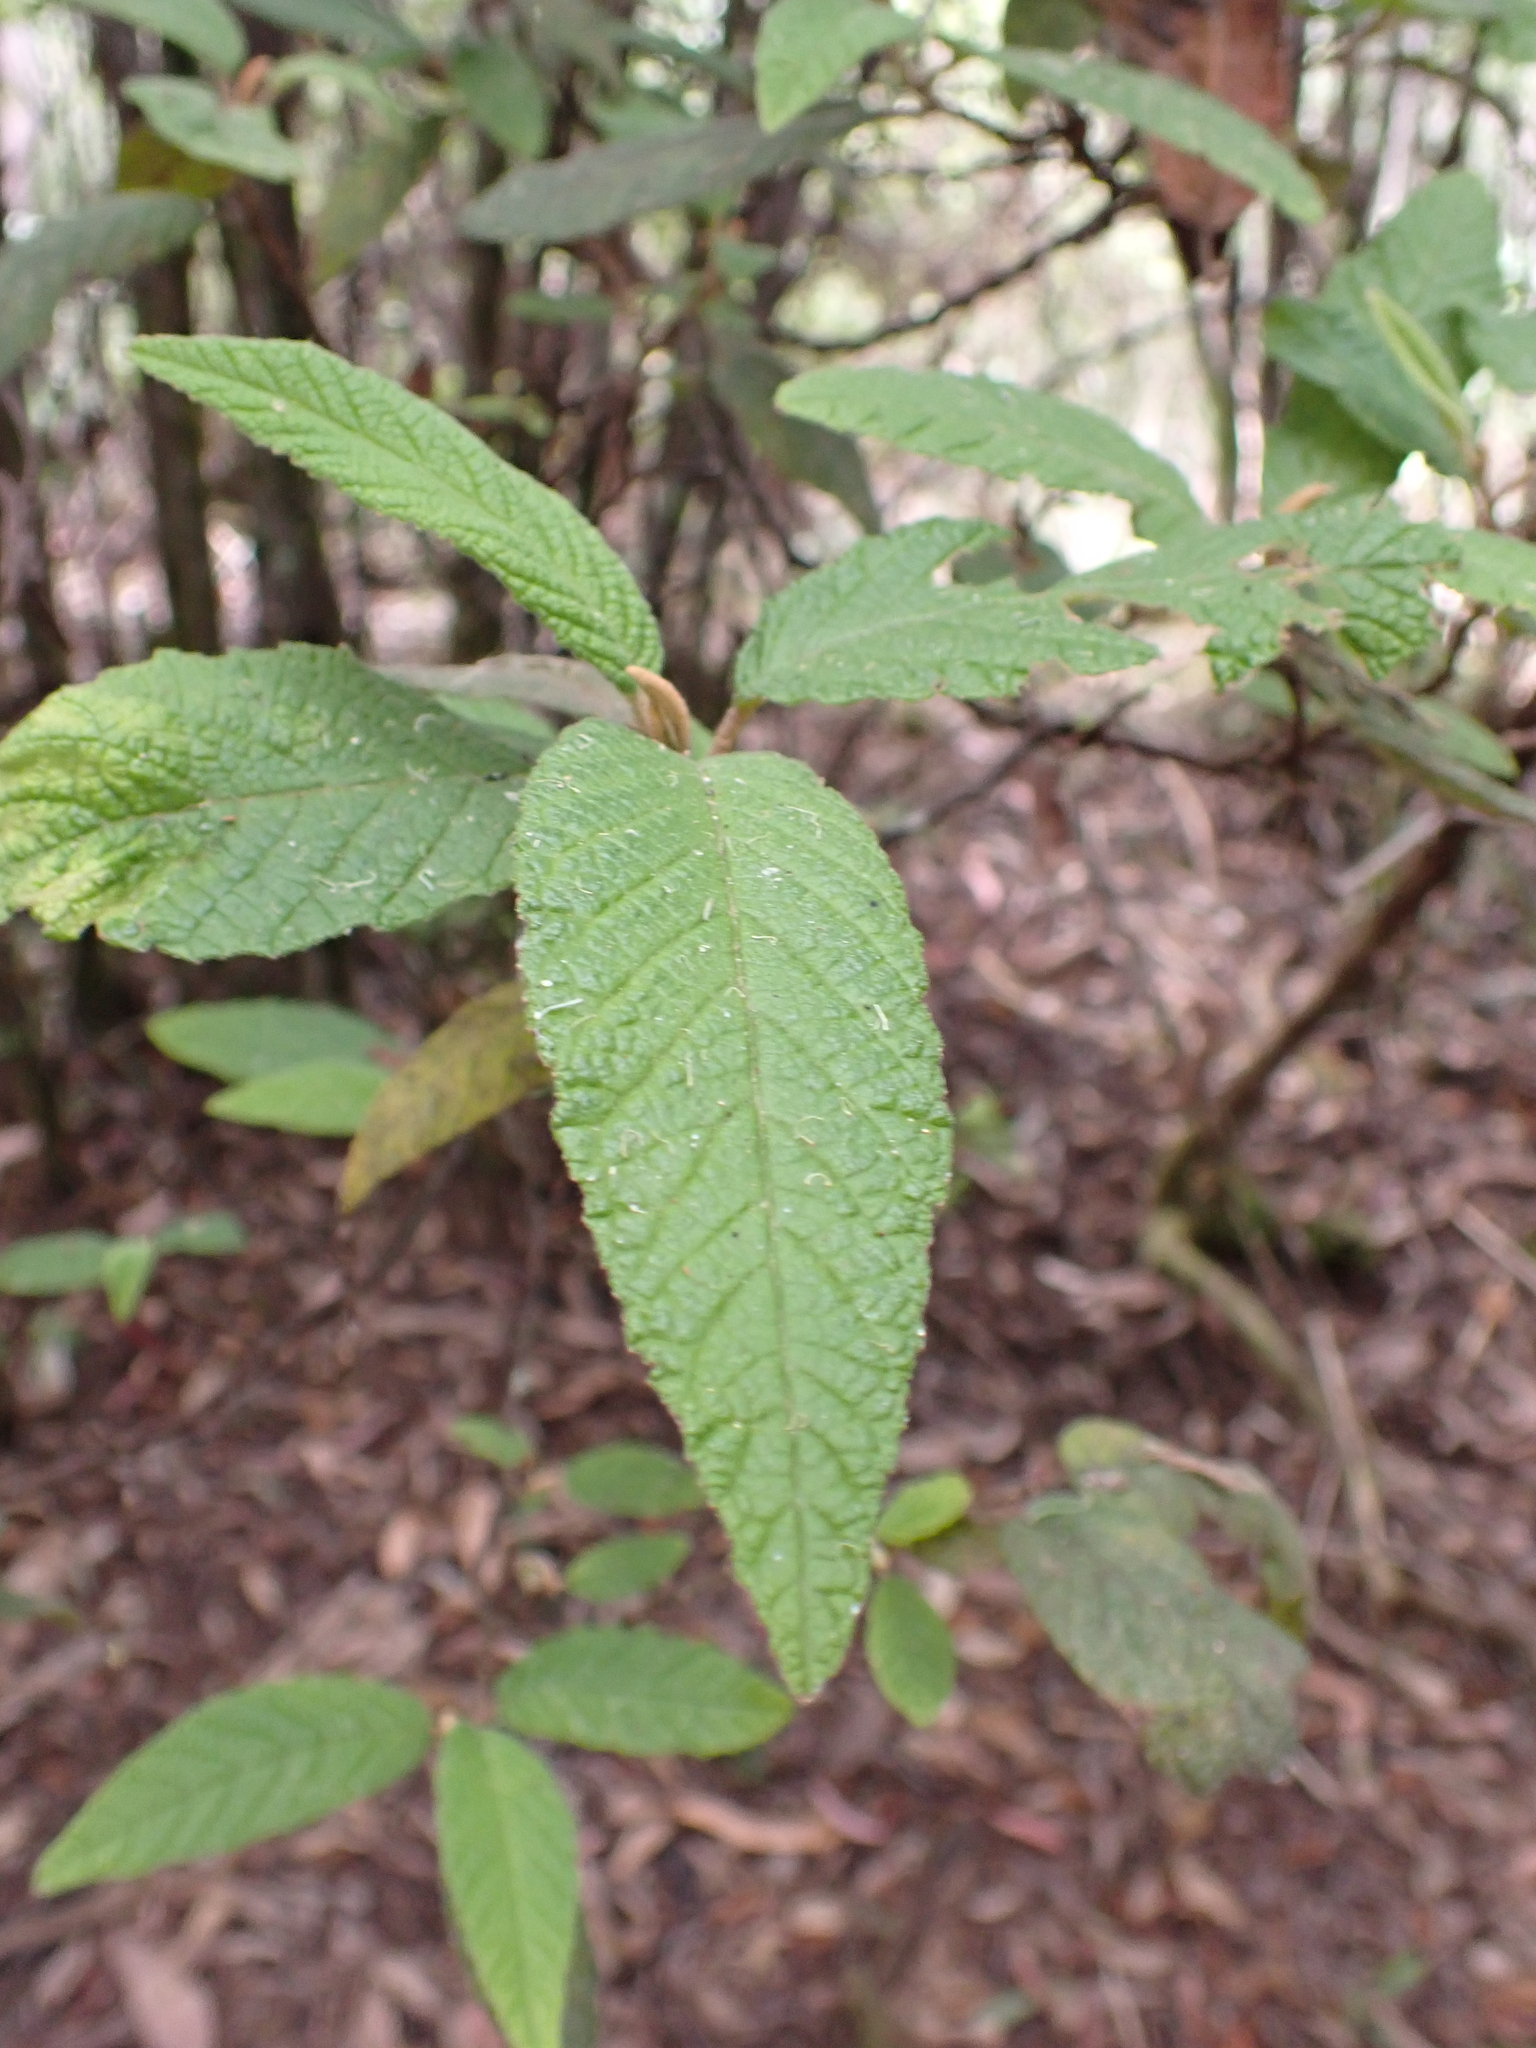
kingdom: Plantae
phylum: Tracheophyta
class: Magnoliopsida
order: Rosales
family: Rhamnaceae
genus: Pomaderris
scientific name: Pomaderris aspera
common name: Hazel pomaderris
